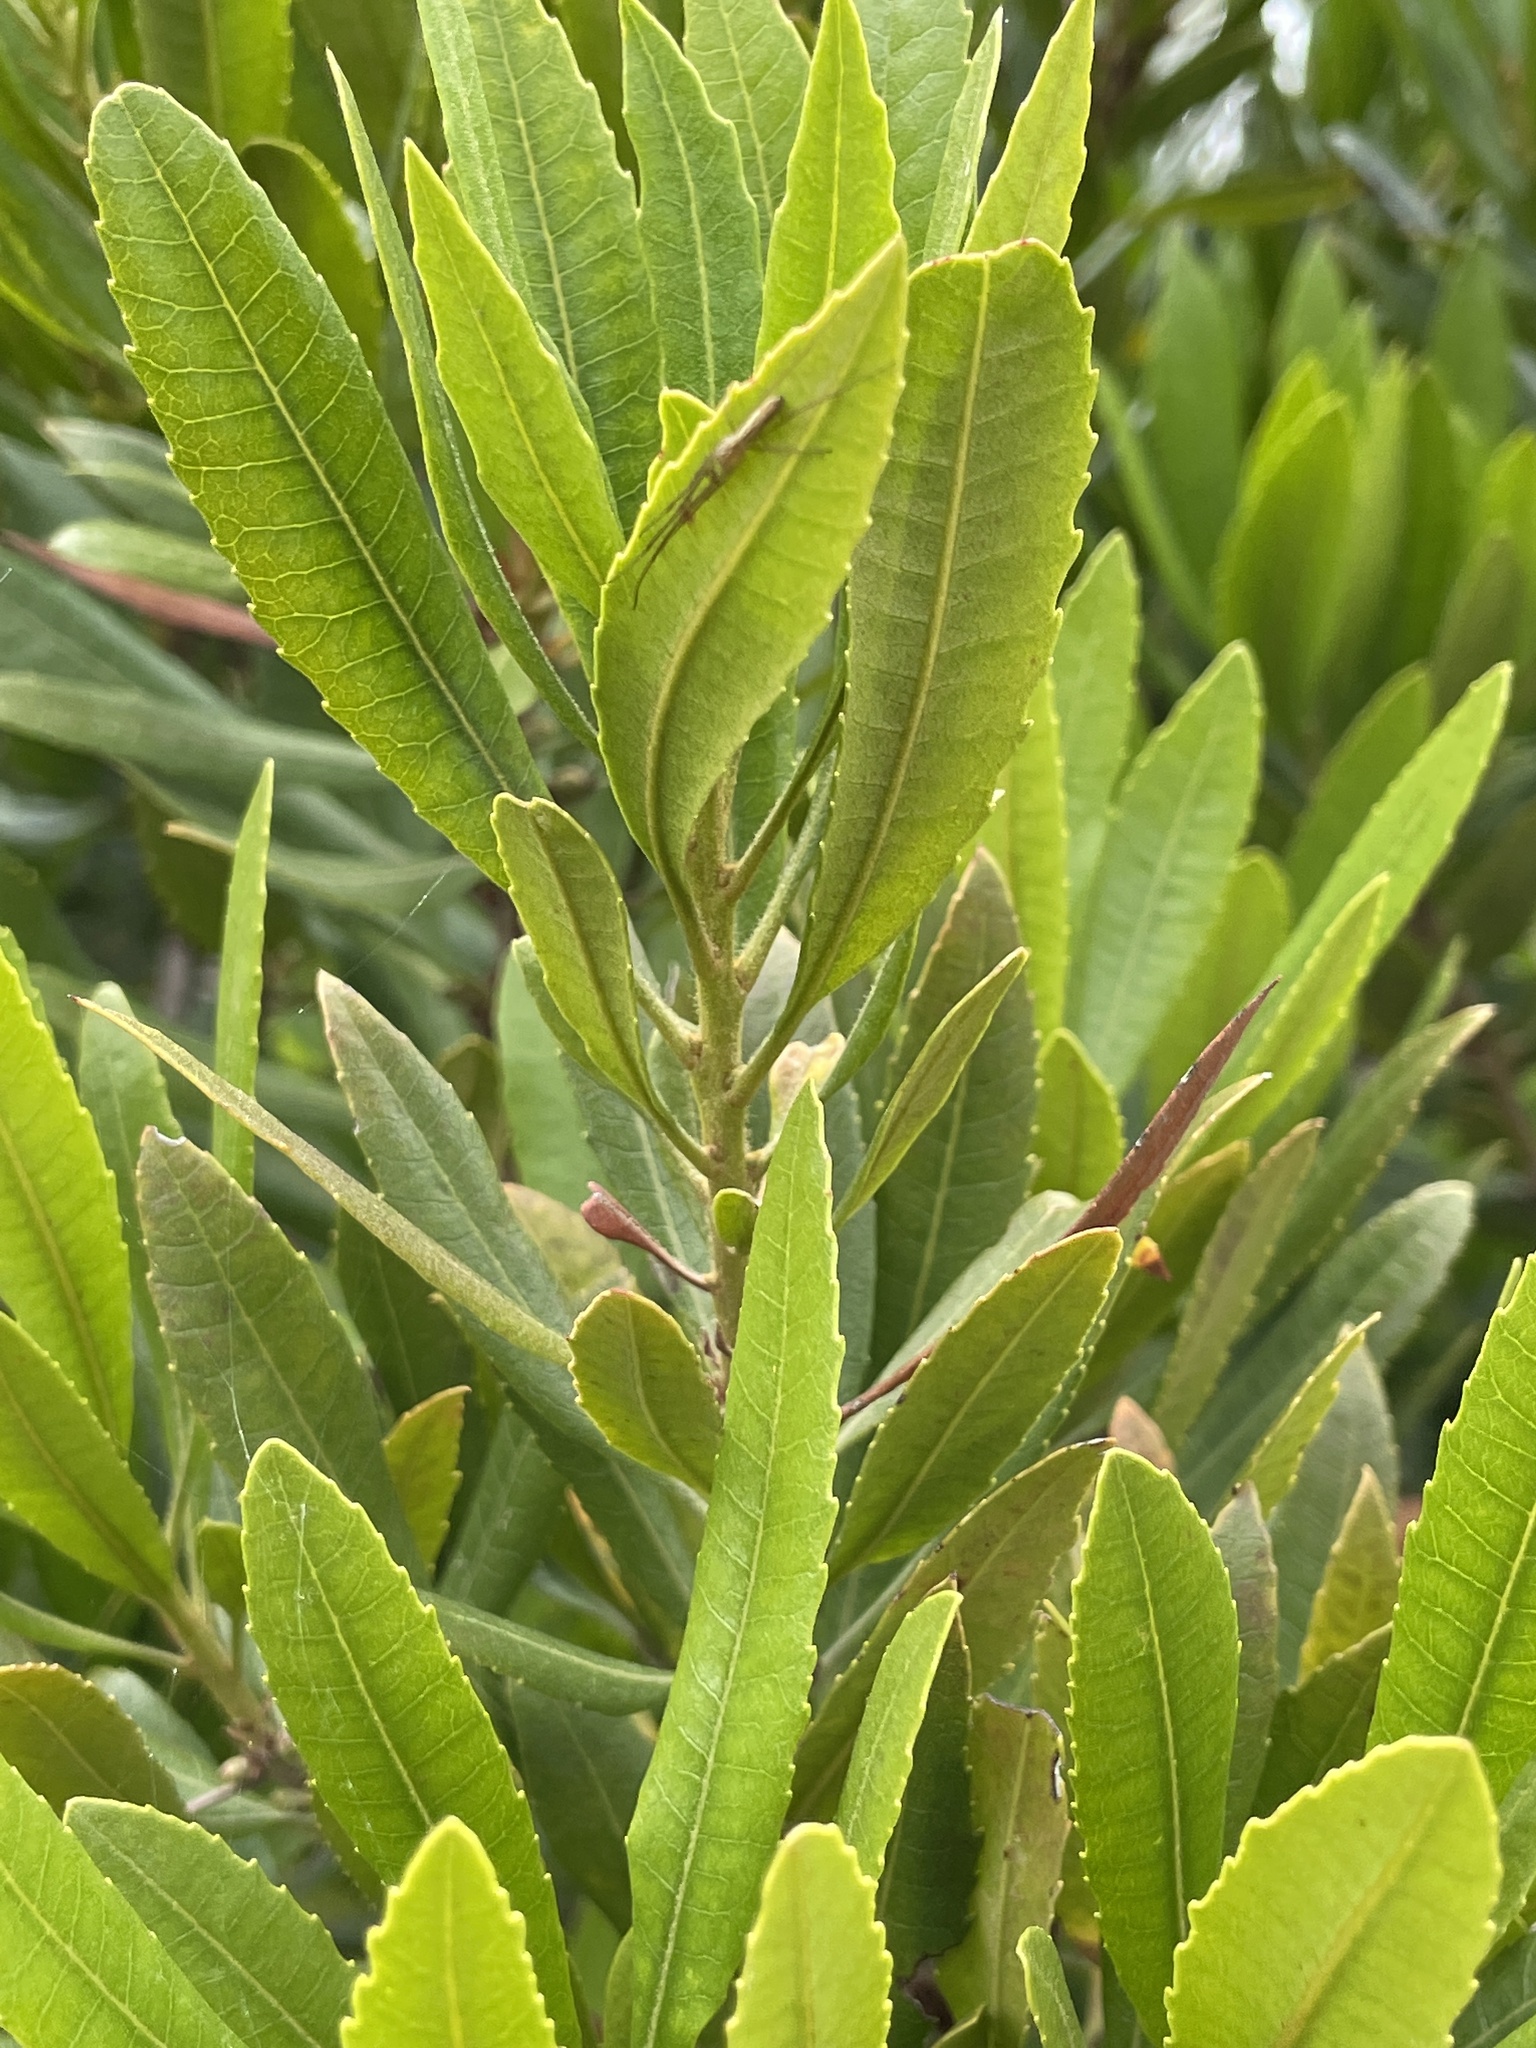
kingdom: Plantae
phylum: Tracheophyta
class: Magnoliopsida
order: Fagales
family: Myricaceae
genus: Morella
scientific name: Morella californica
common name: California wax-myrtle
